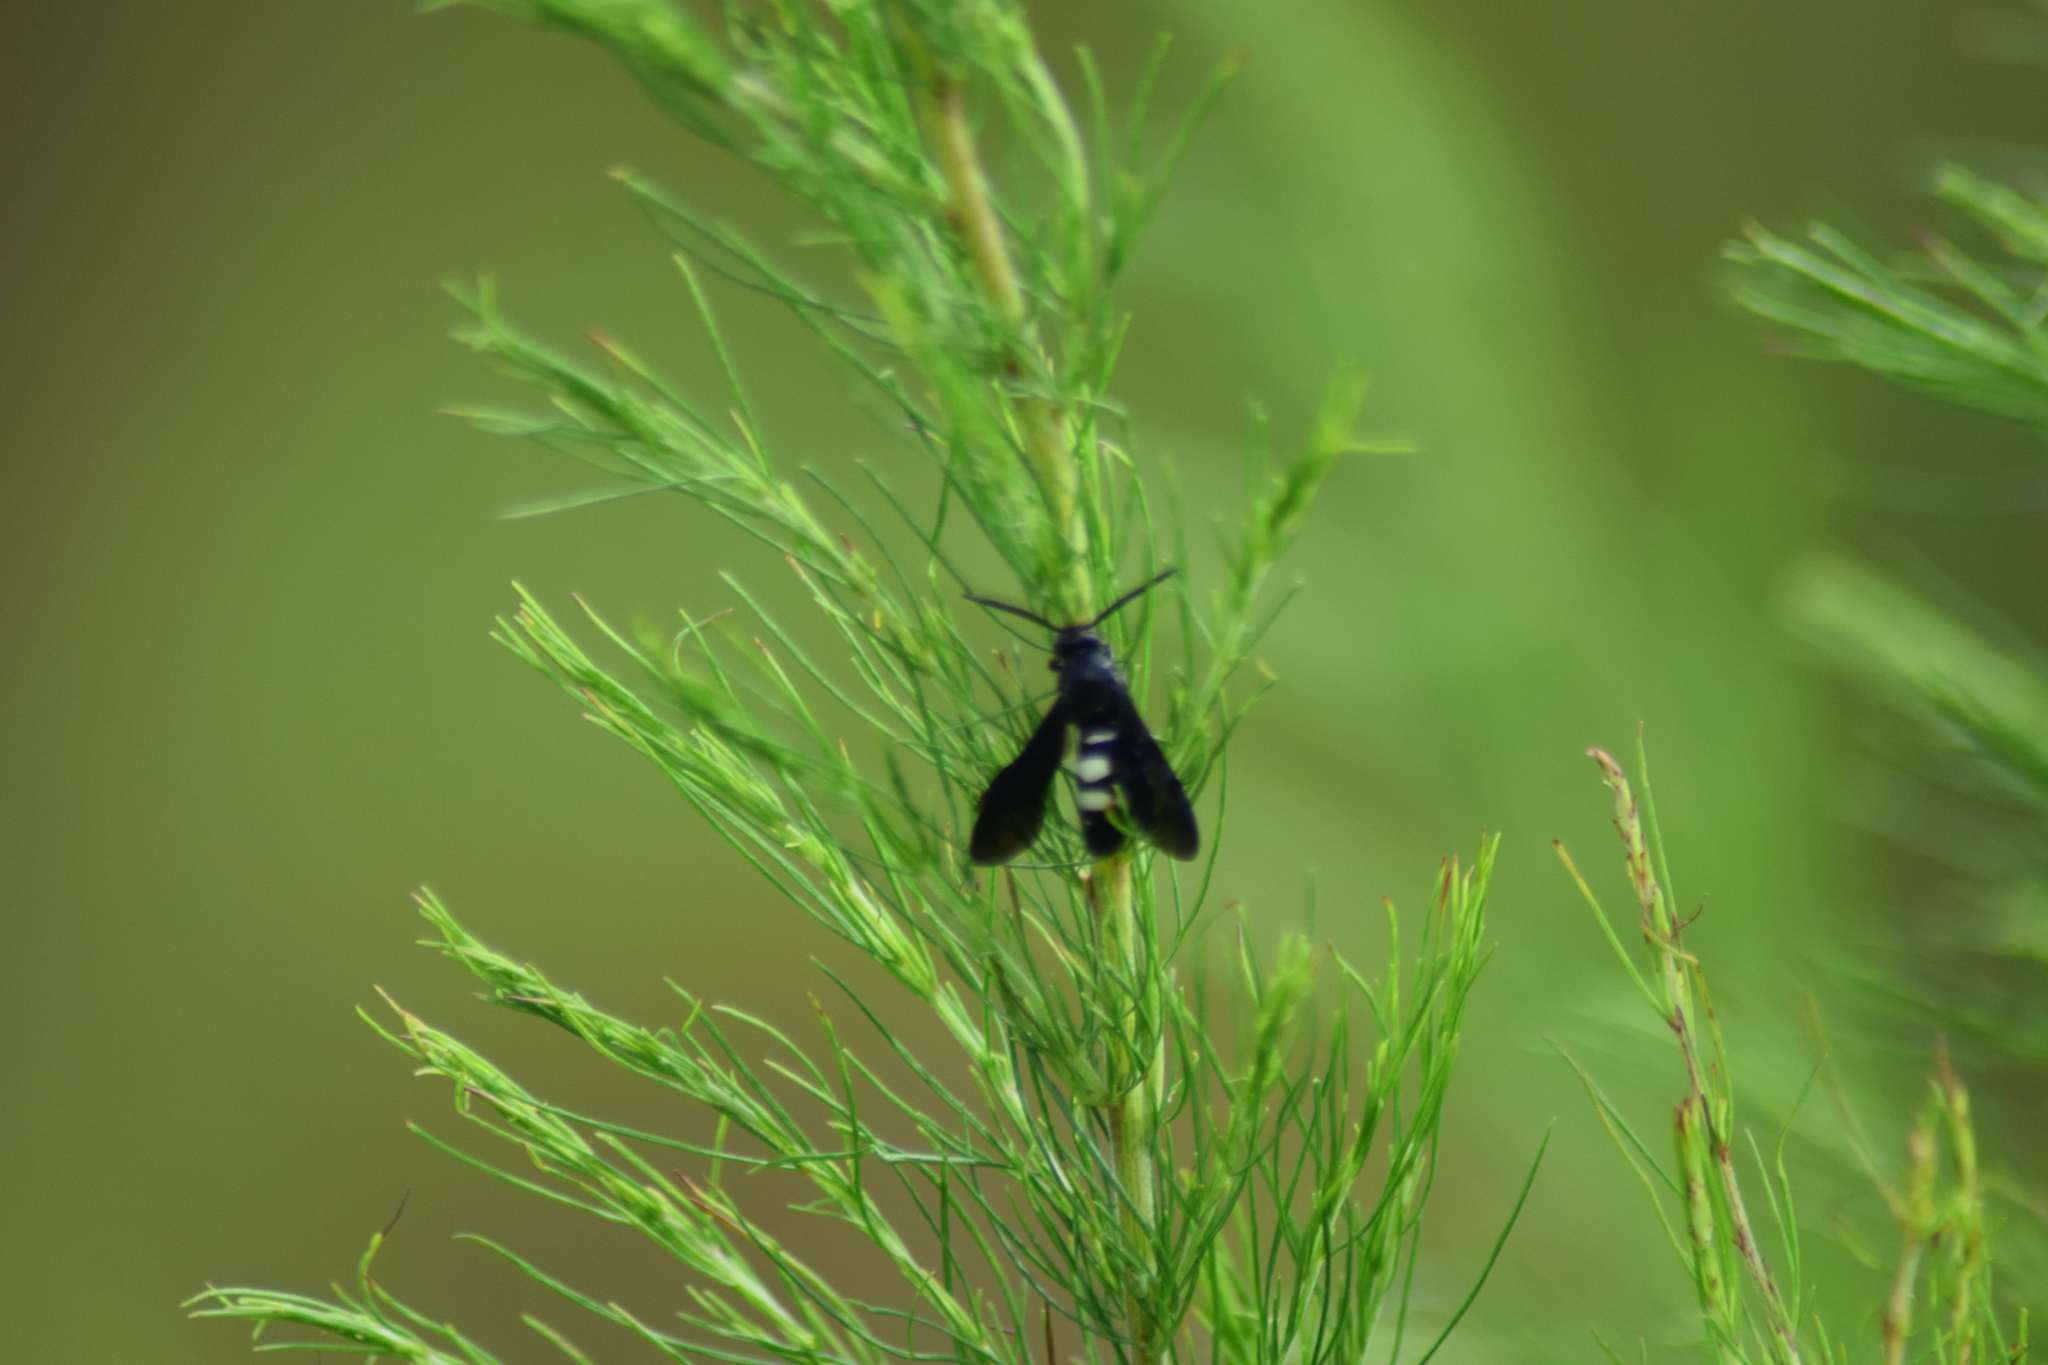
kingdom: Animalia
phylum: Arthropoda
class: Insecta
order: Hymenoptera
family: Scoliidae
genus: Scolia
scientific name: Scolia bicincta
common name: Double-banded scoliid wasp
